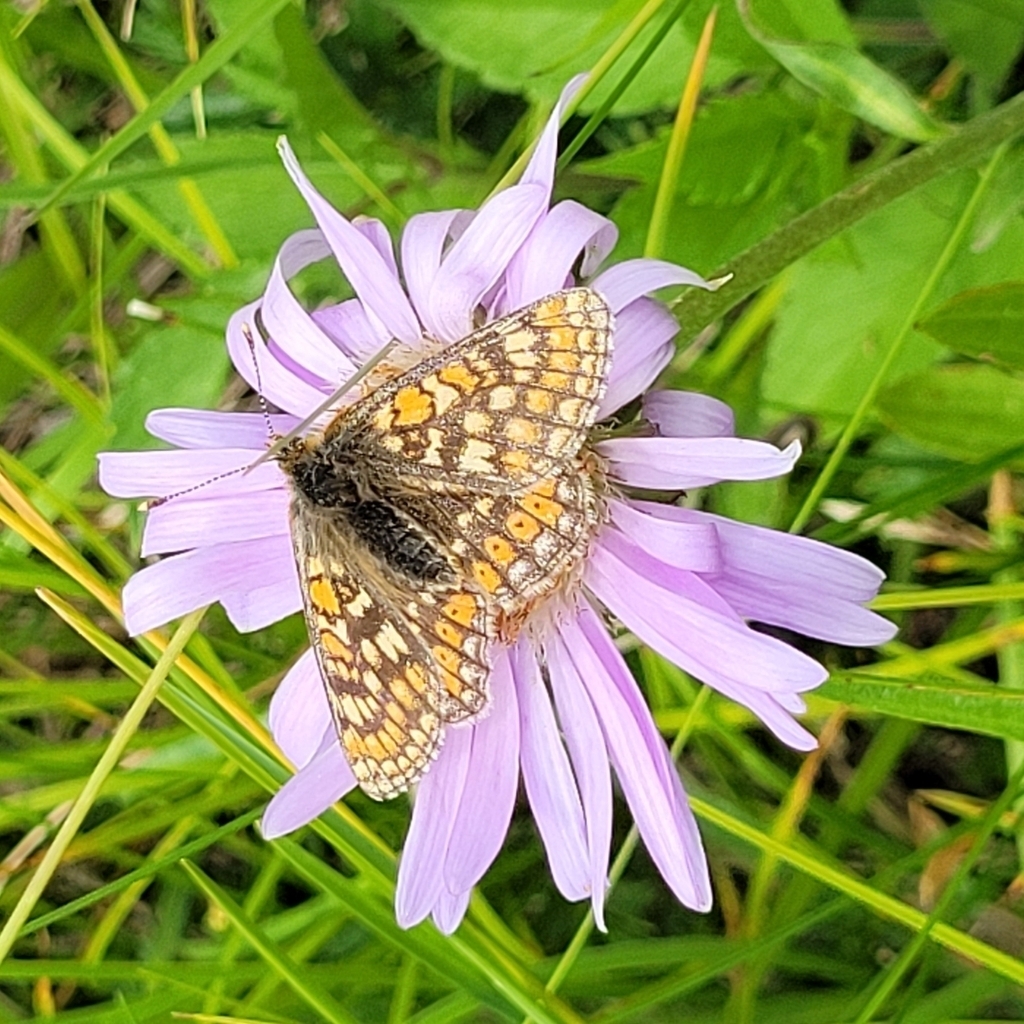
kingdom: Animalia
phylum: Arthropoda
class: Insecta
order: Lepidoptera
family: Nymphalidae
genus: Euphydryas
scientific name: Euphydryas aurinia
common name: Marsh fritillary
